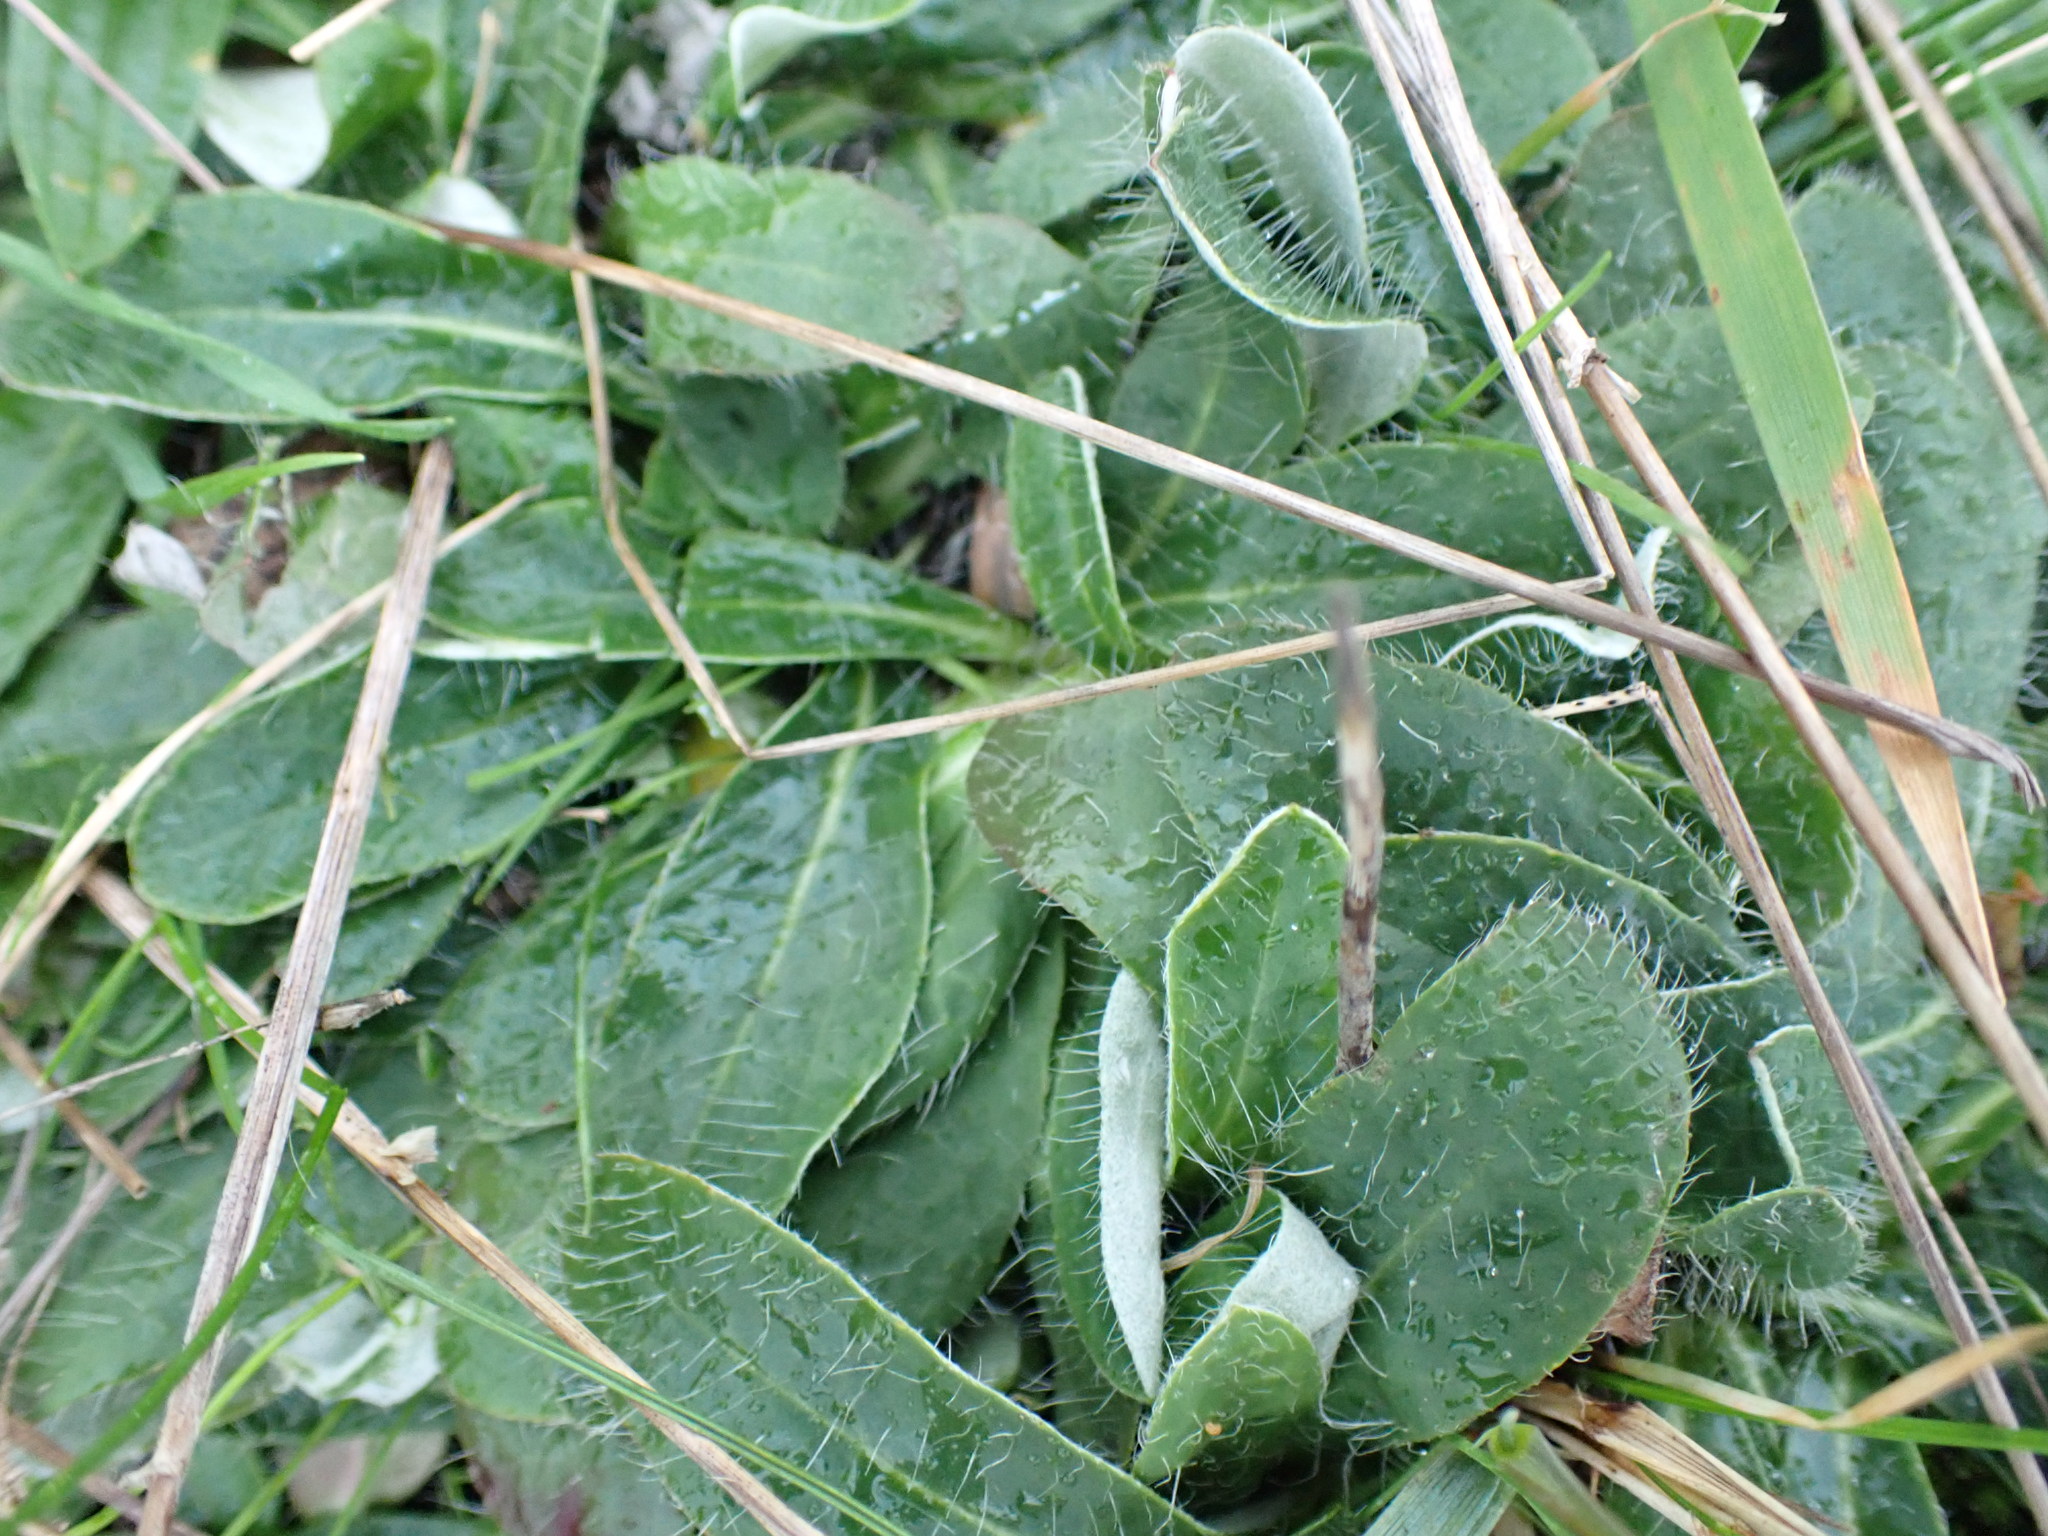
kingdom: Plantae
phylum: Tracheophyta
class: Magnoliopsida
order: Asterales
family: Asteraceae
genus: Pilosella
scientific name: Pilosella officinarum
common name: Mouse-ear hawkweed
